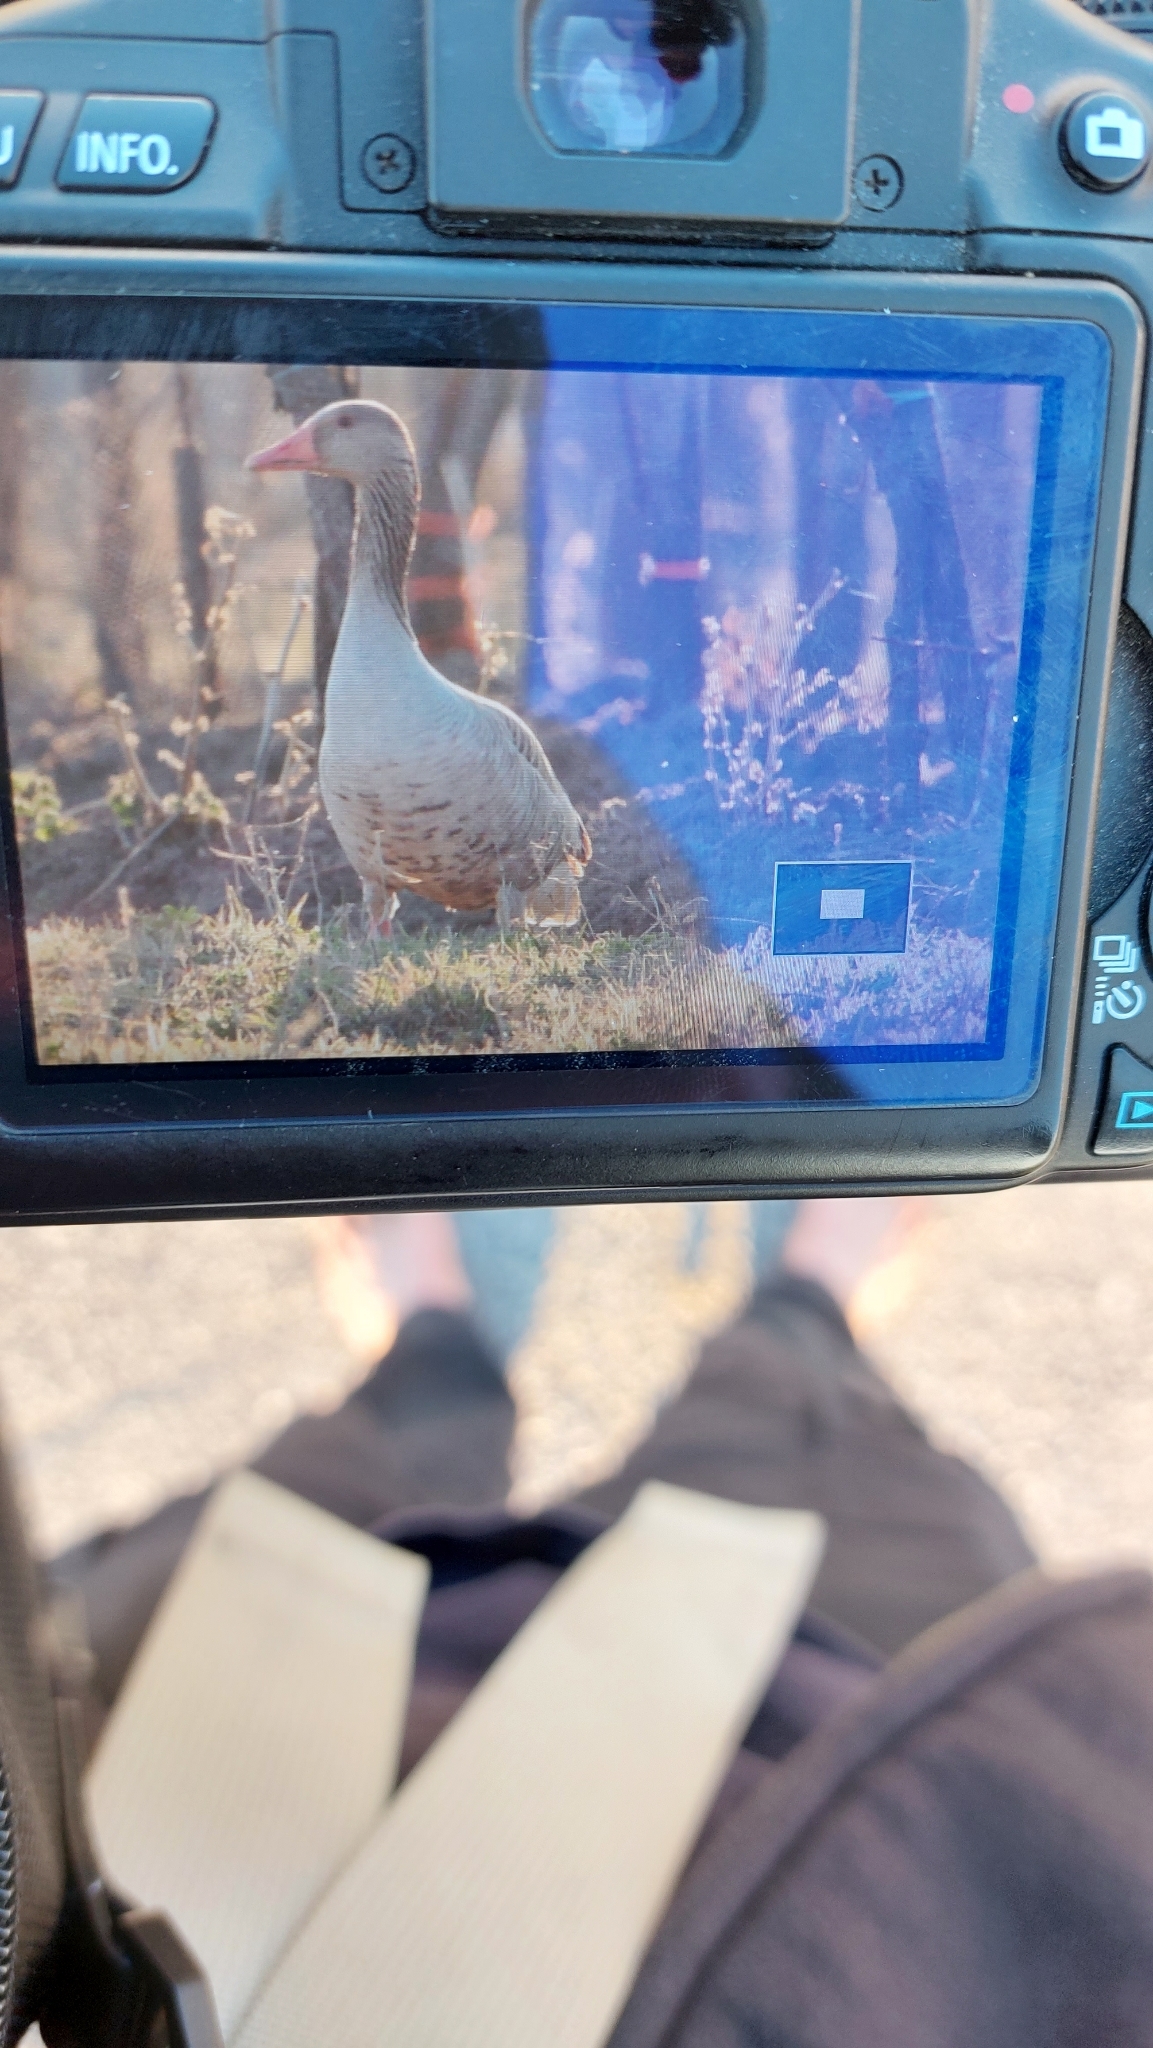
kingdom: Animalia
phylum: Chordata
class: Aves
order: Anseriformes
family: Anatidae
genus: Anser
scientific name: Anser anser
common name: Greylag goose
